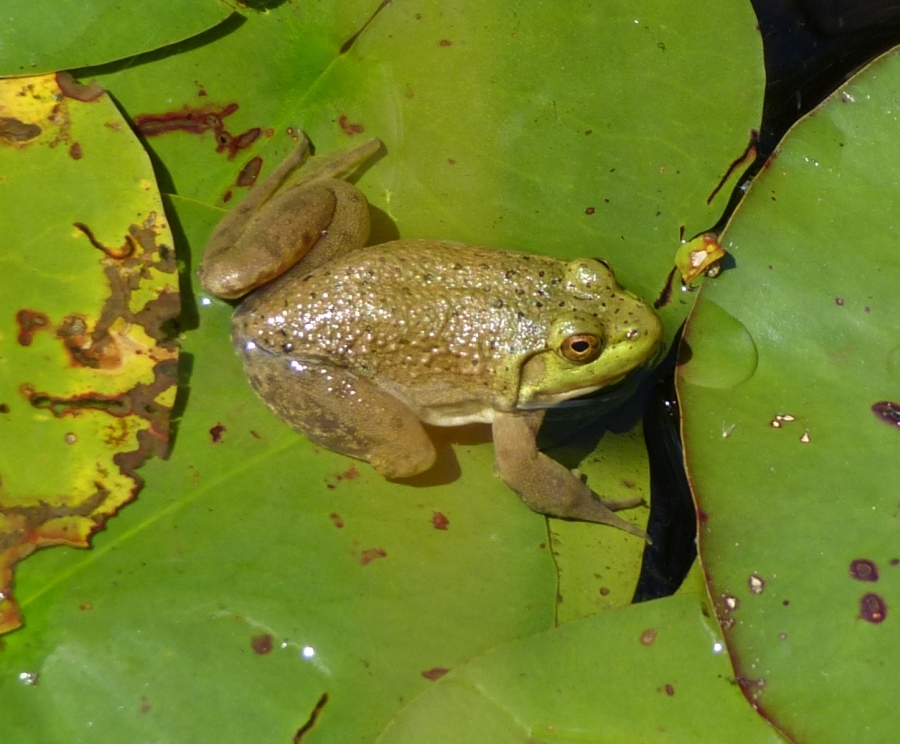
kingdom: Animalia
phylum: Chordata
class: Amphibia
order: Anura
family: Ranidae
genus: Lithobates
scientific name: Lithobates catesbeianus
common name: American bullfrog
